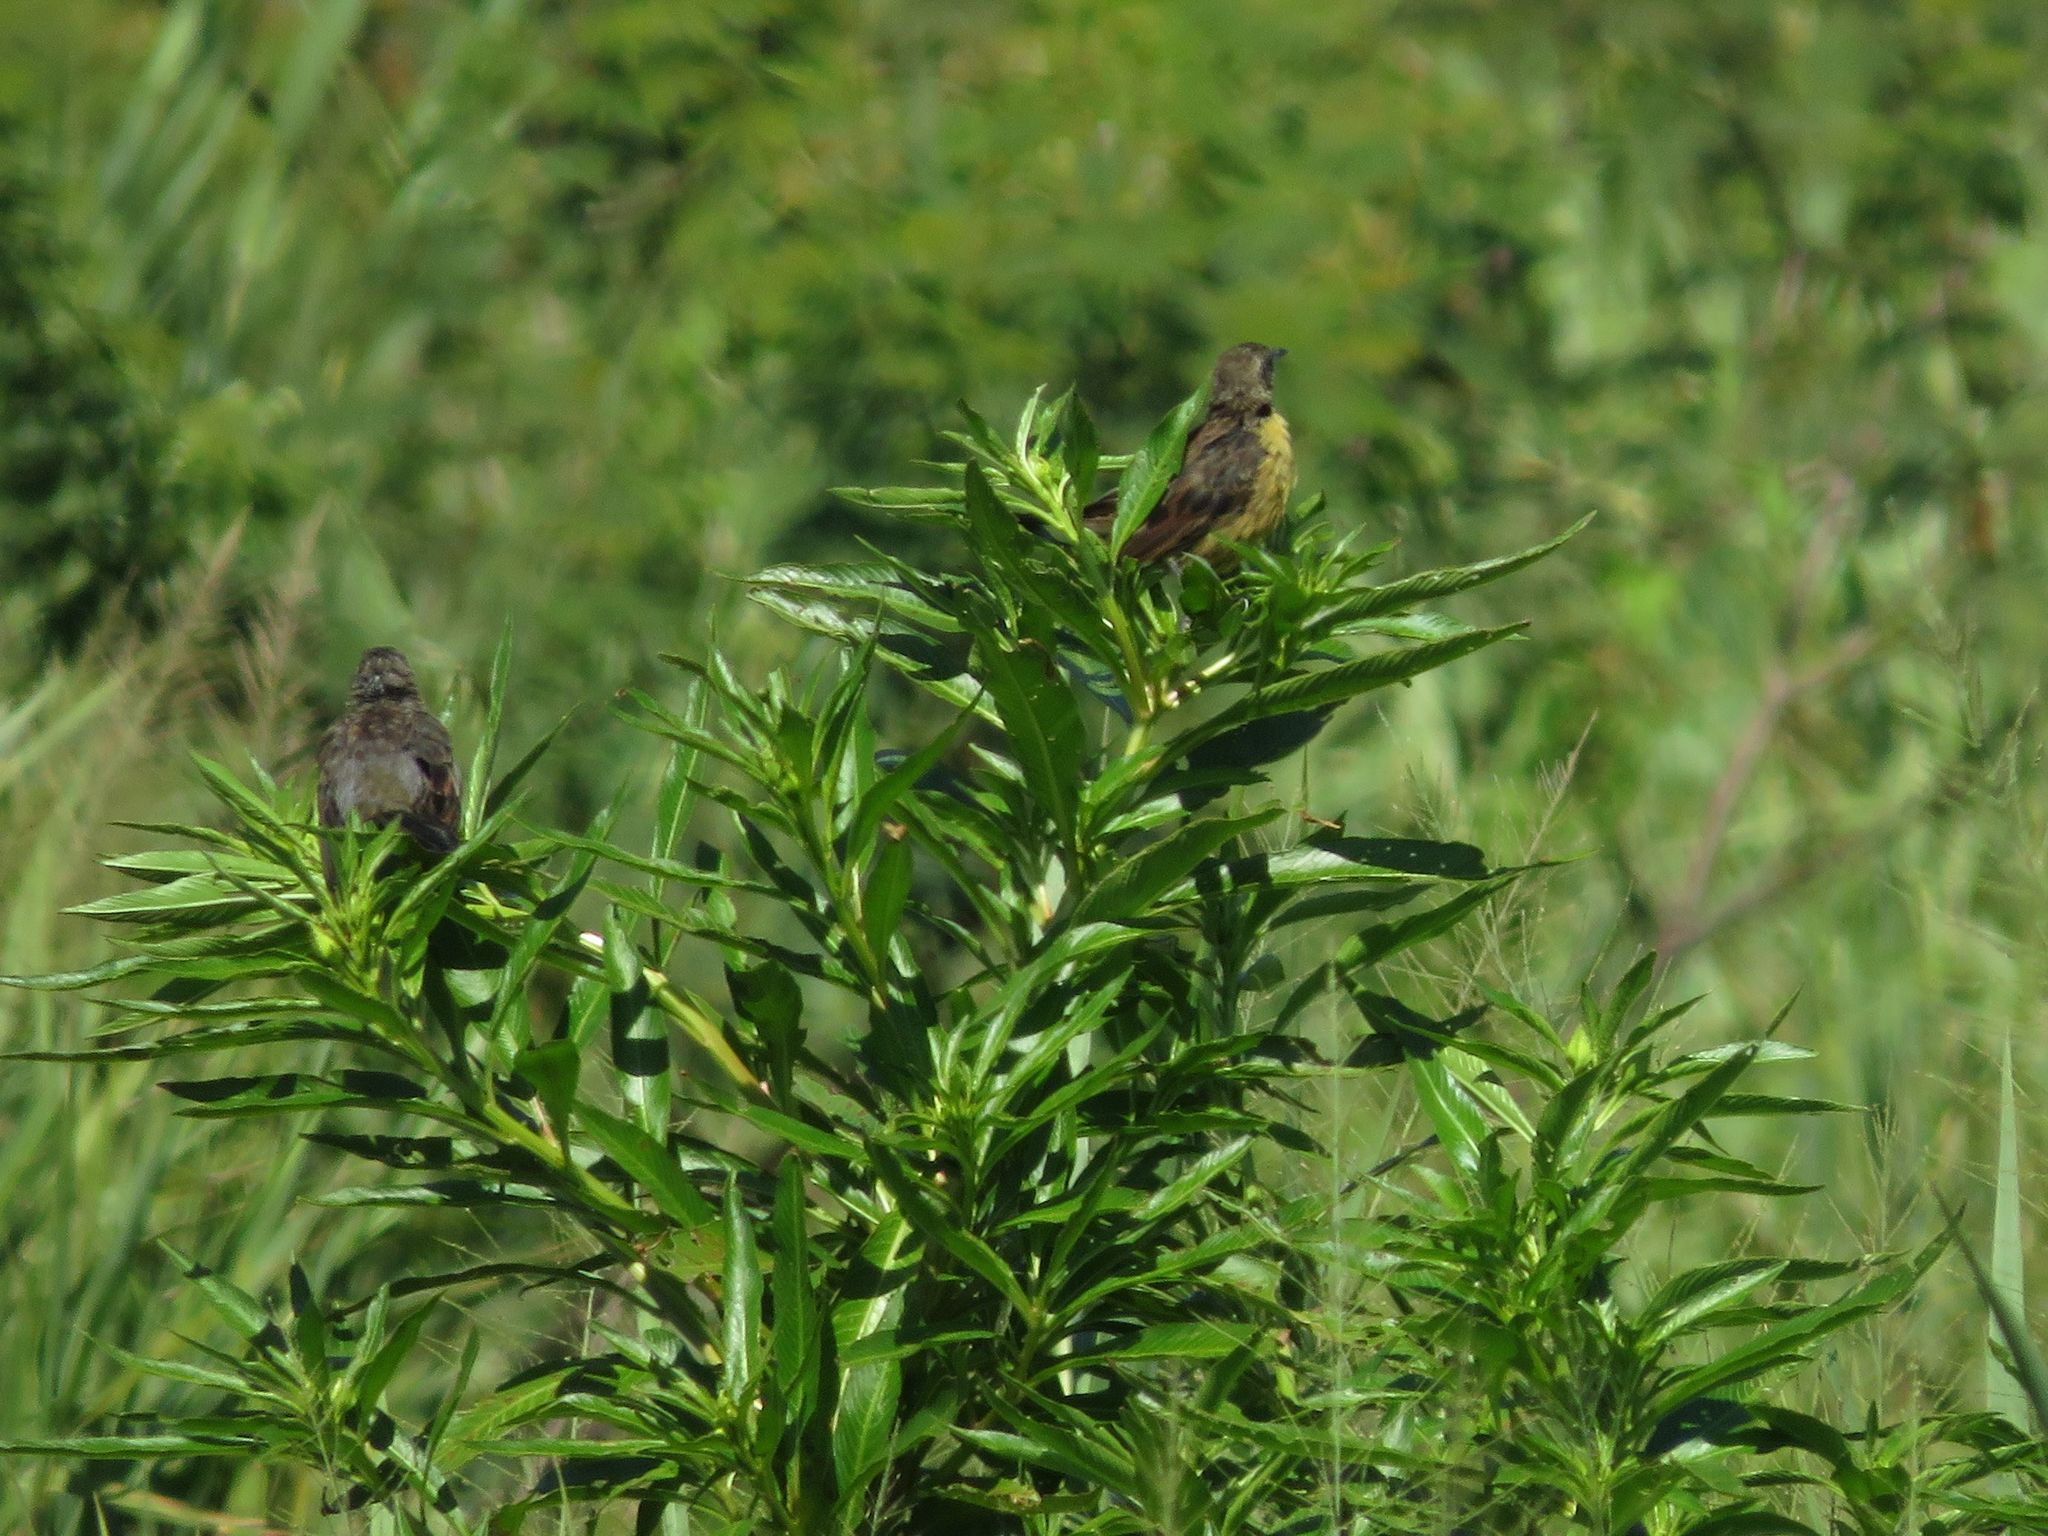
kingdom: Animalia
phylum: Chordata
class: Aves
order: Passeriformes
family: Icteridae
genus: Agelasticus
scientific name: Agelasticus cyanopus
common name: Unicolored blackbird
